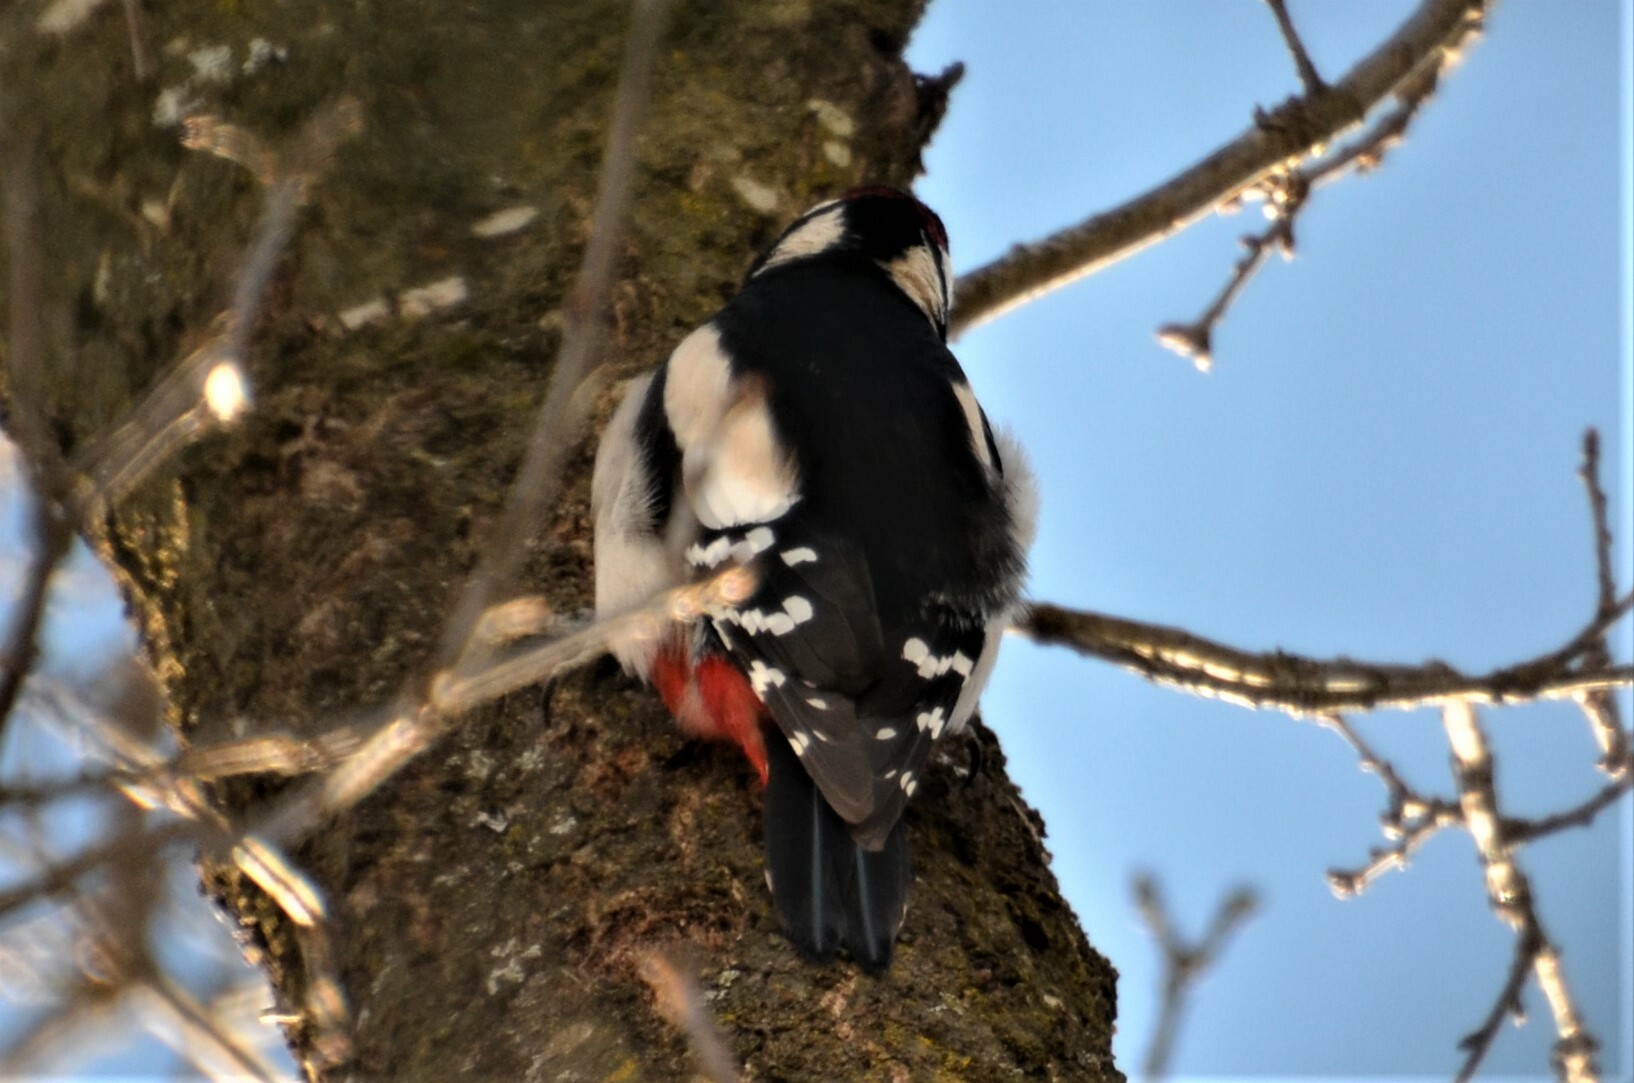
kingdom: Animalia
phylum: Chordata
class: Aves
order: Piciformes
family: Picidae
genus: Dendrocopos
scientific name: Dendrocopos major
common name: Great spotted woodpecker
